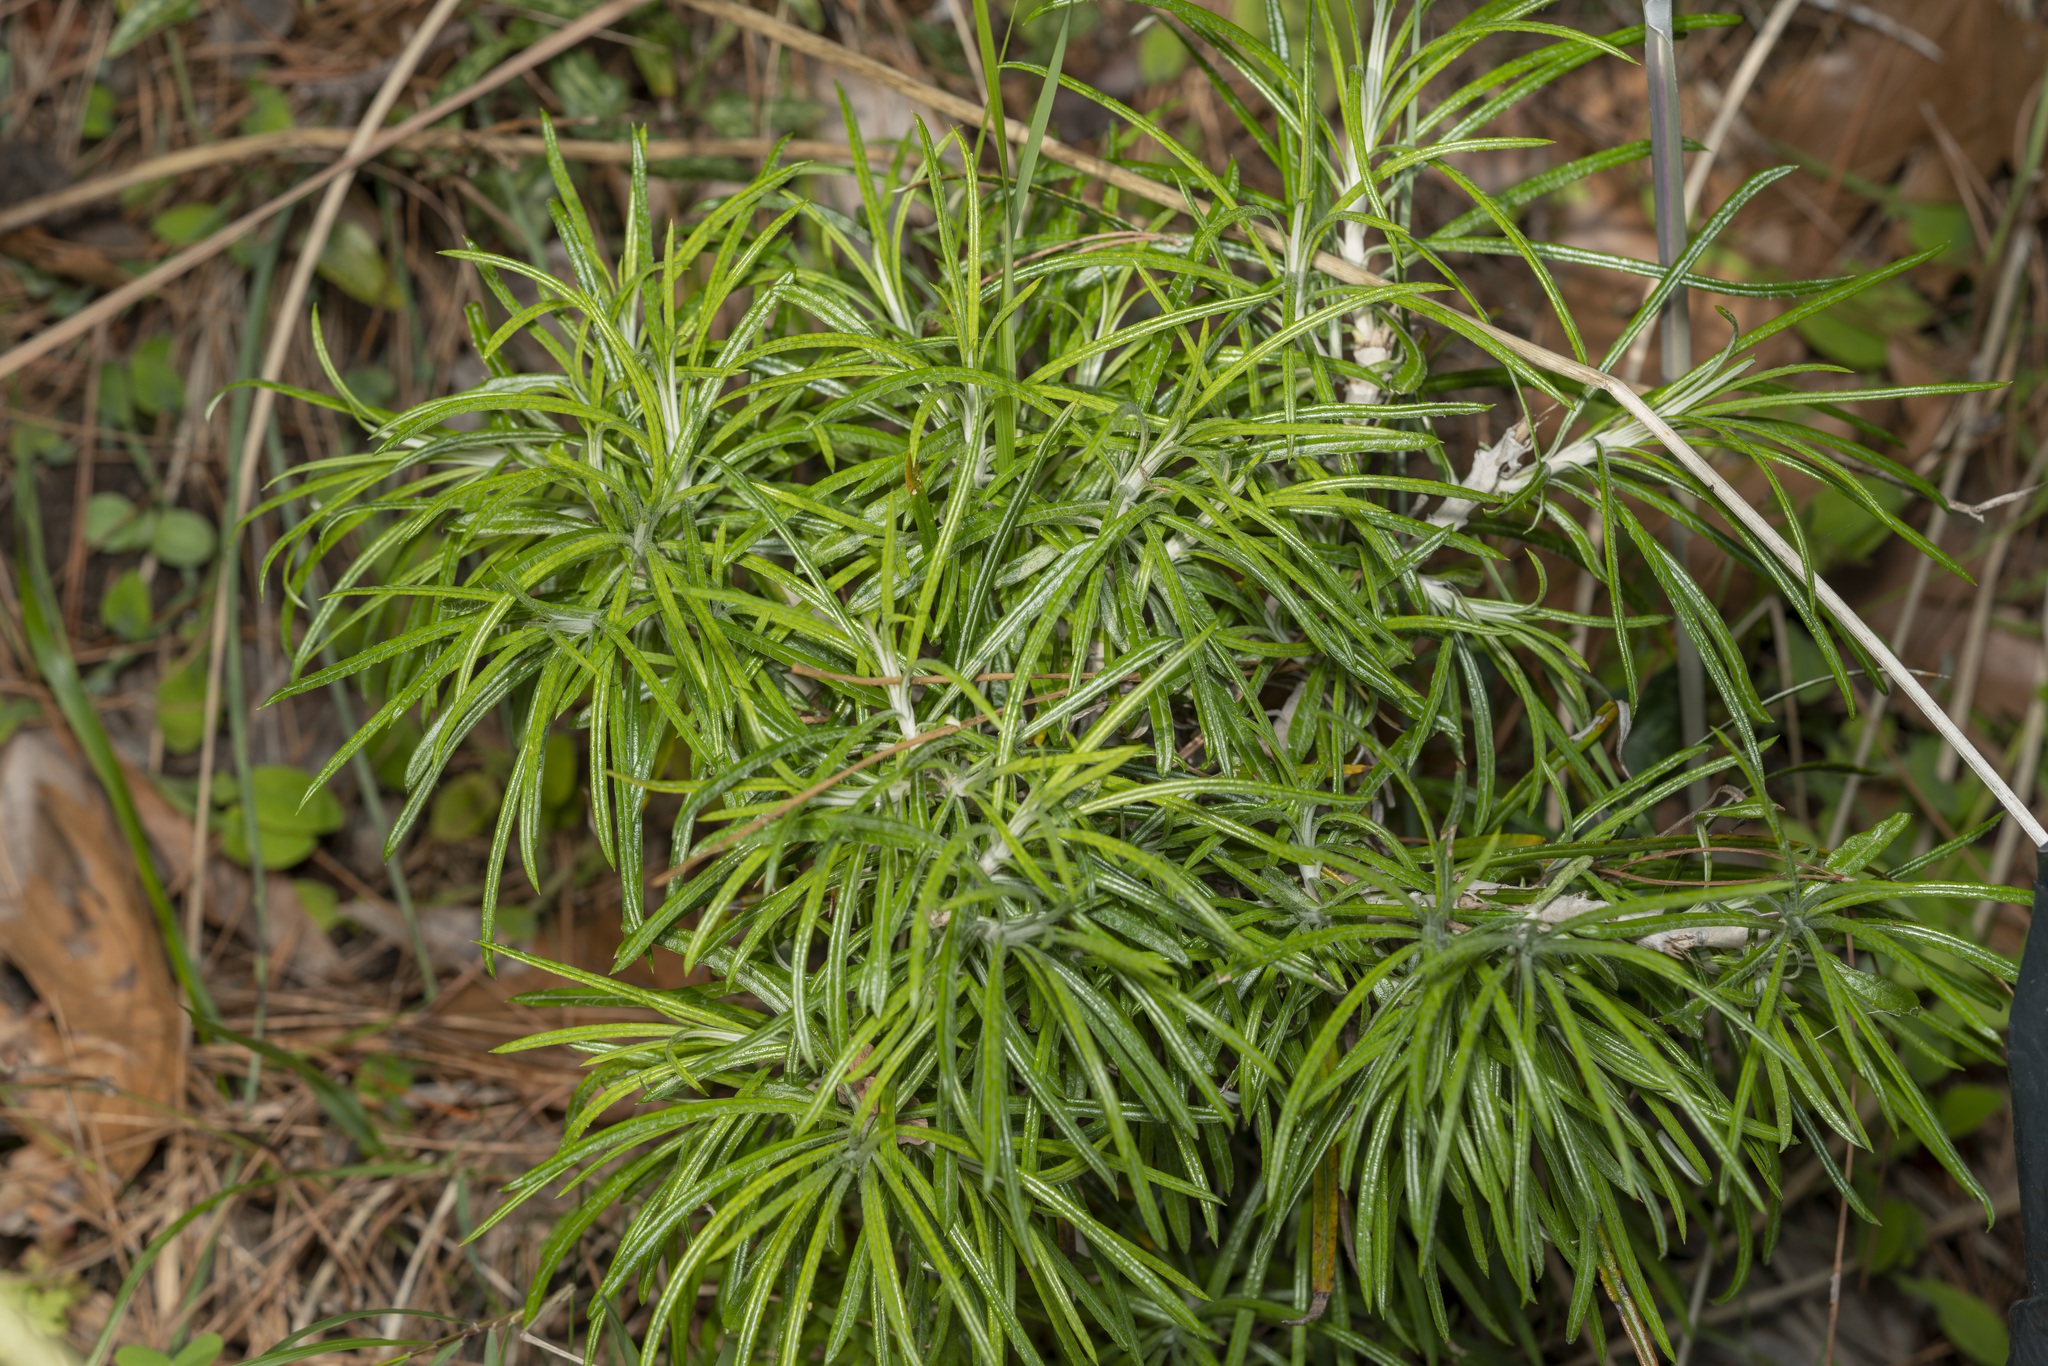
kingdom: Plantae
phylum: Tracheophyta
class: Magnoliopsida
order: Asterales
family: Asteraceae
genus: Ptilostemon
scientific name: Ptilostemon chamaepeuce
